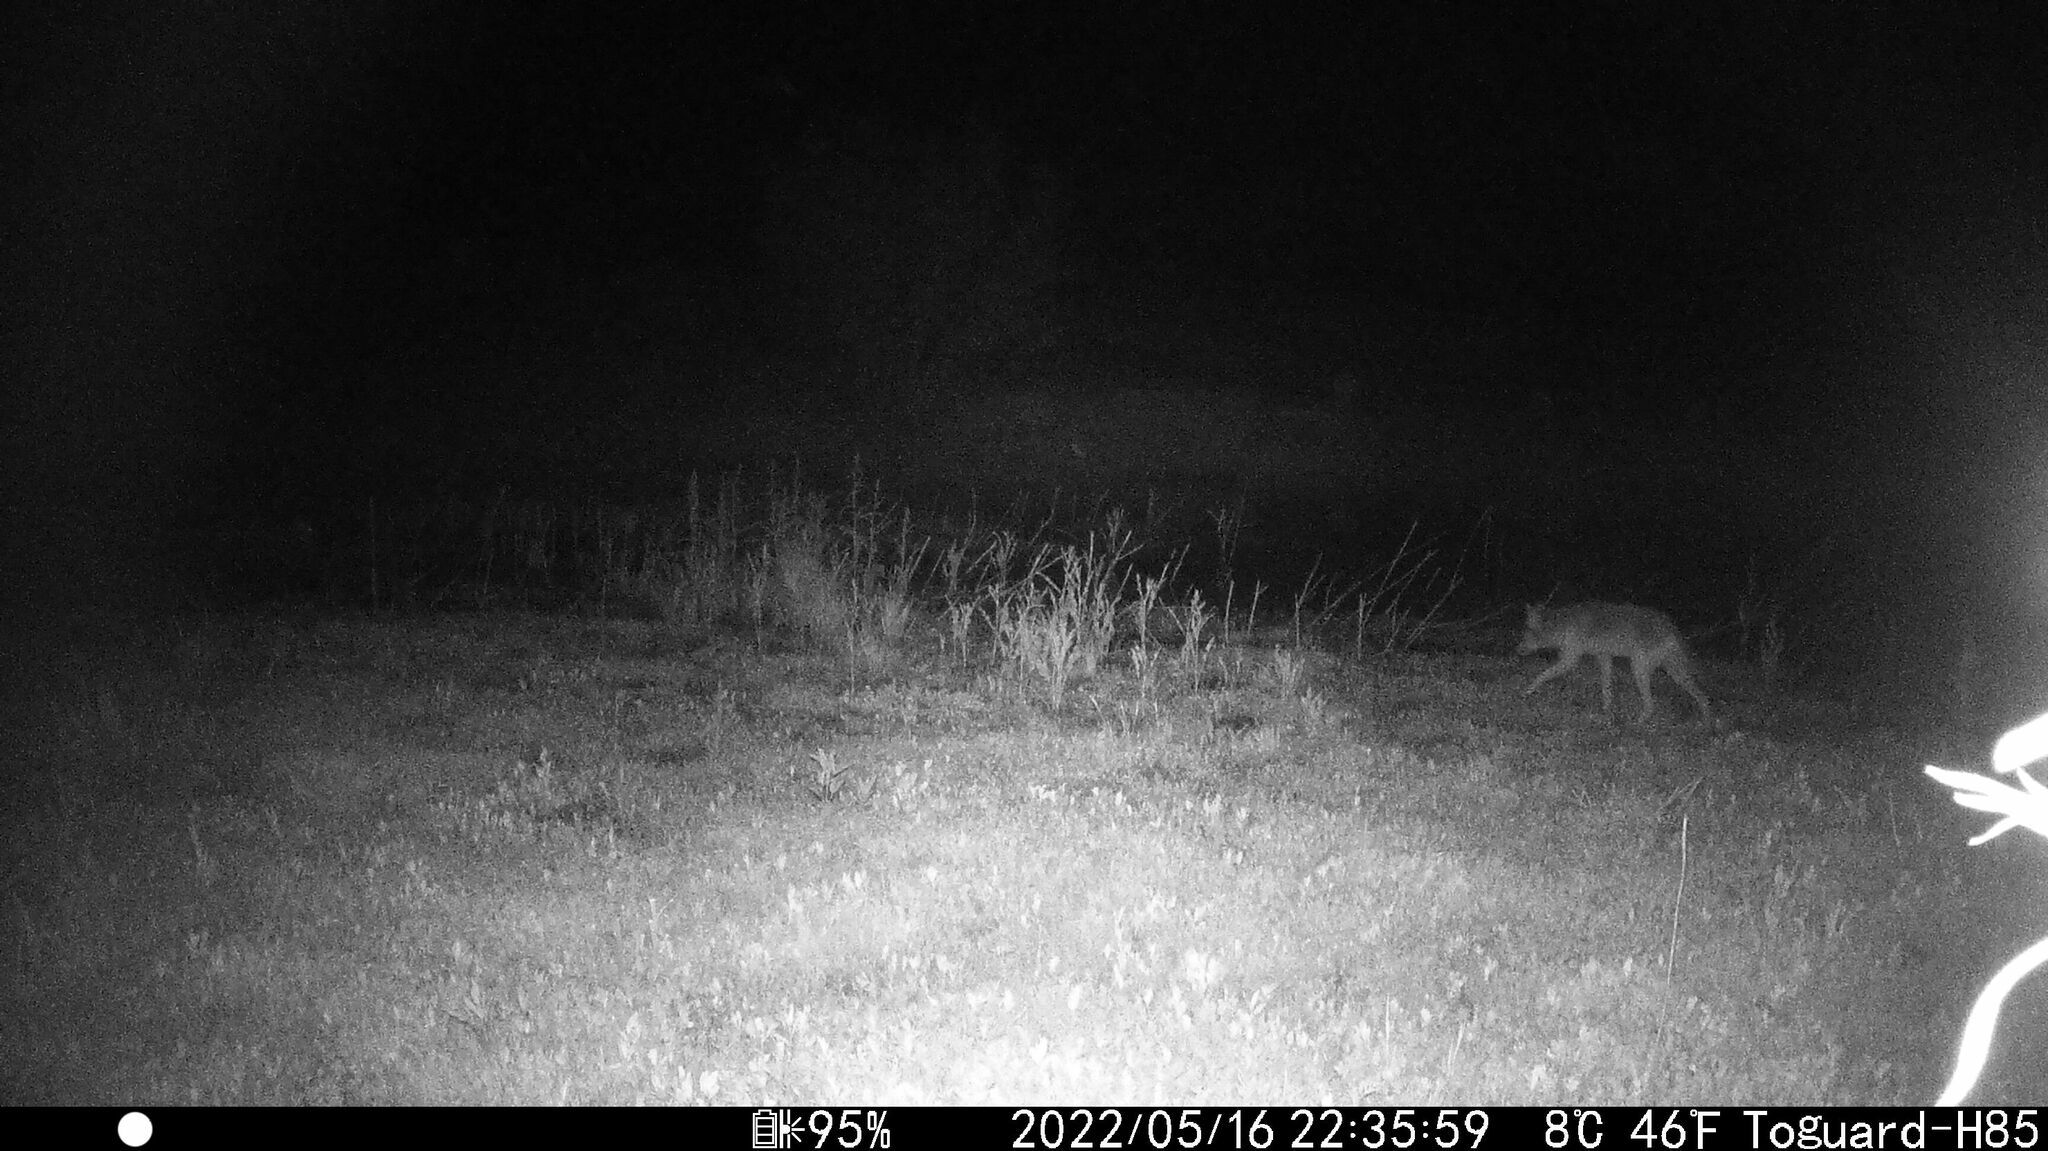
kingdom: Animalia
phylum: Chordata
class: Mammalia
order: Carnivora
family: Canidae
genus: Canis
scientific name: Canis latrans
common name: Coyote
